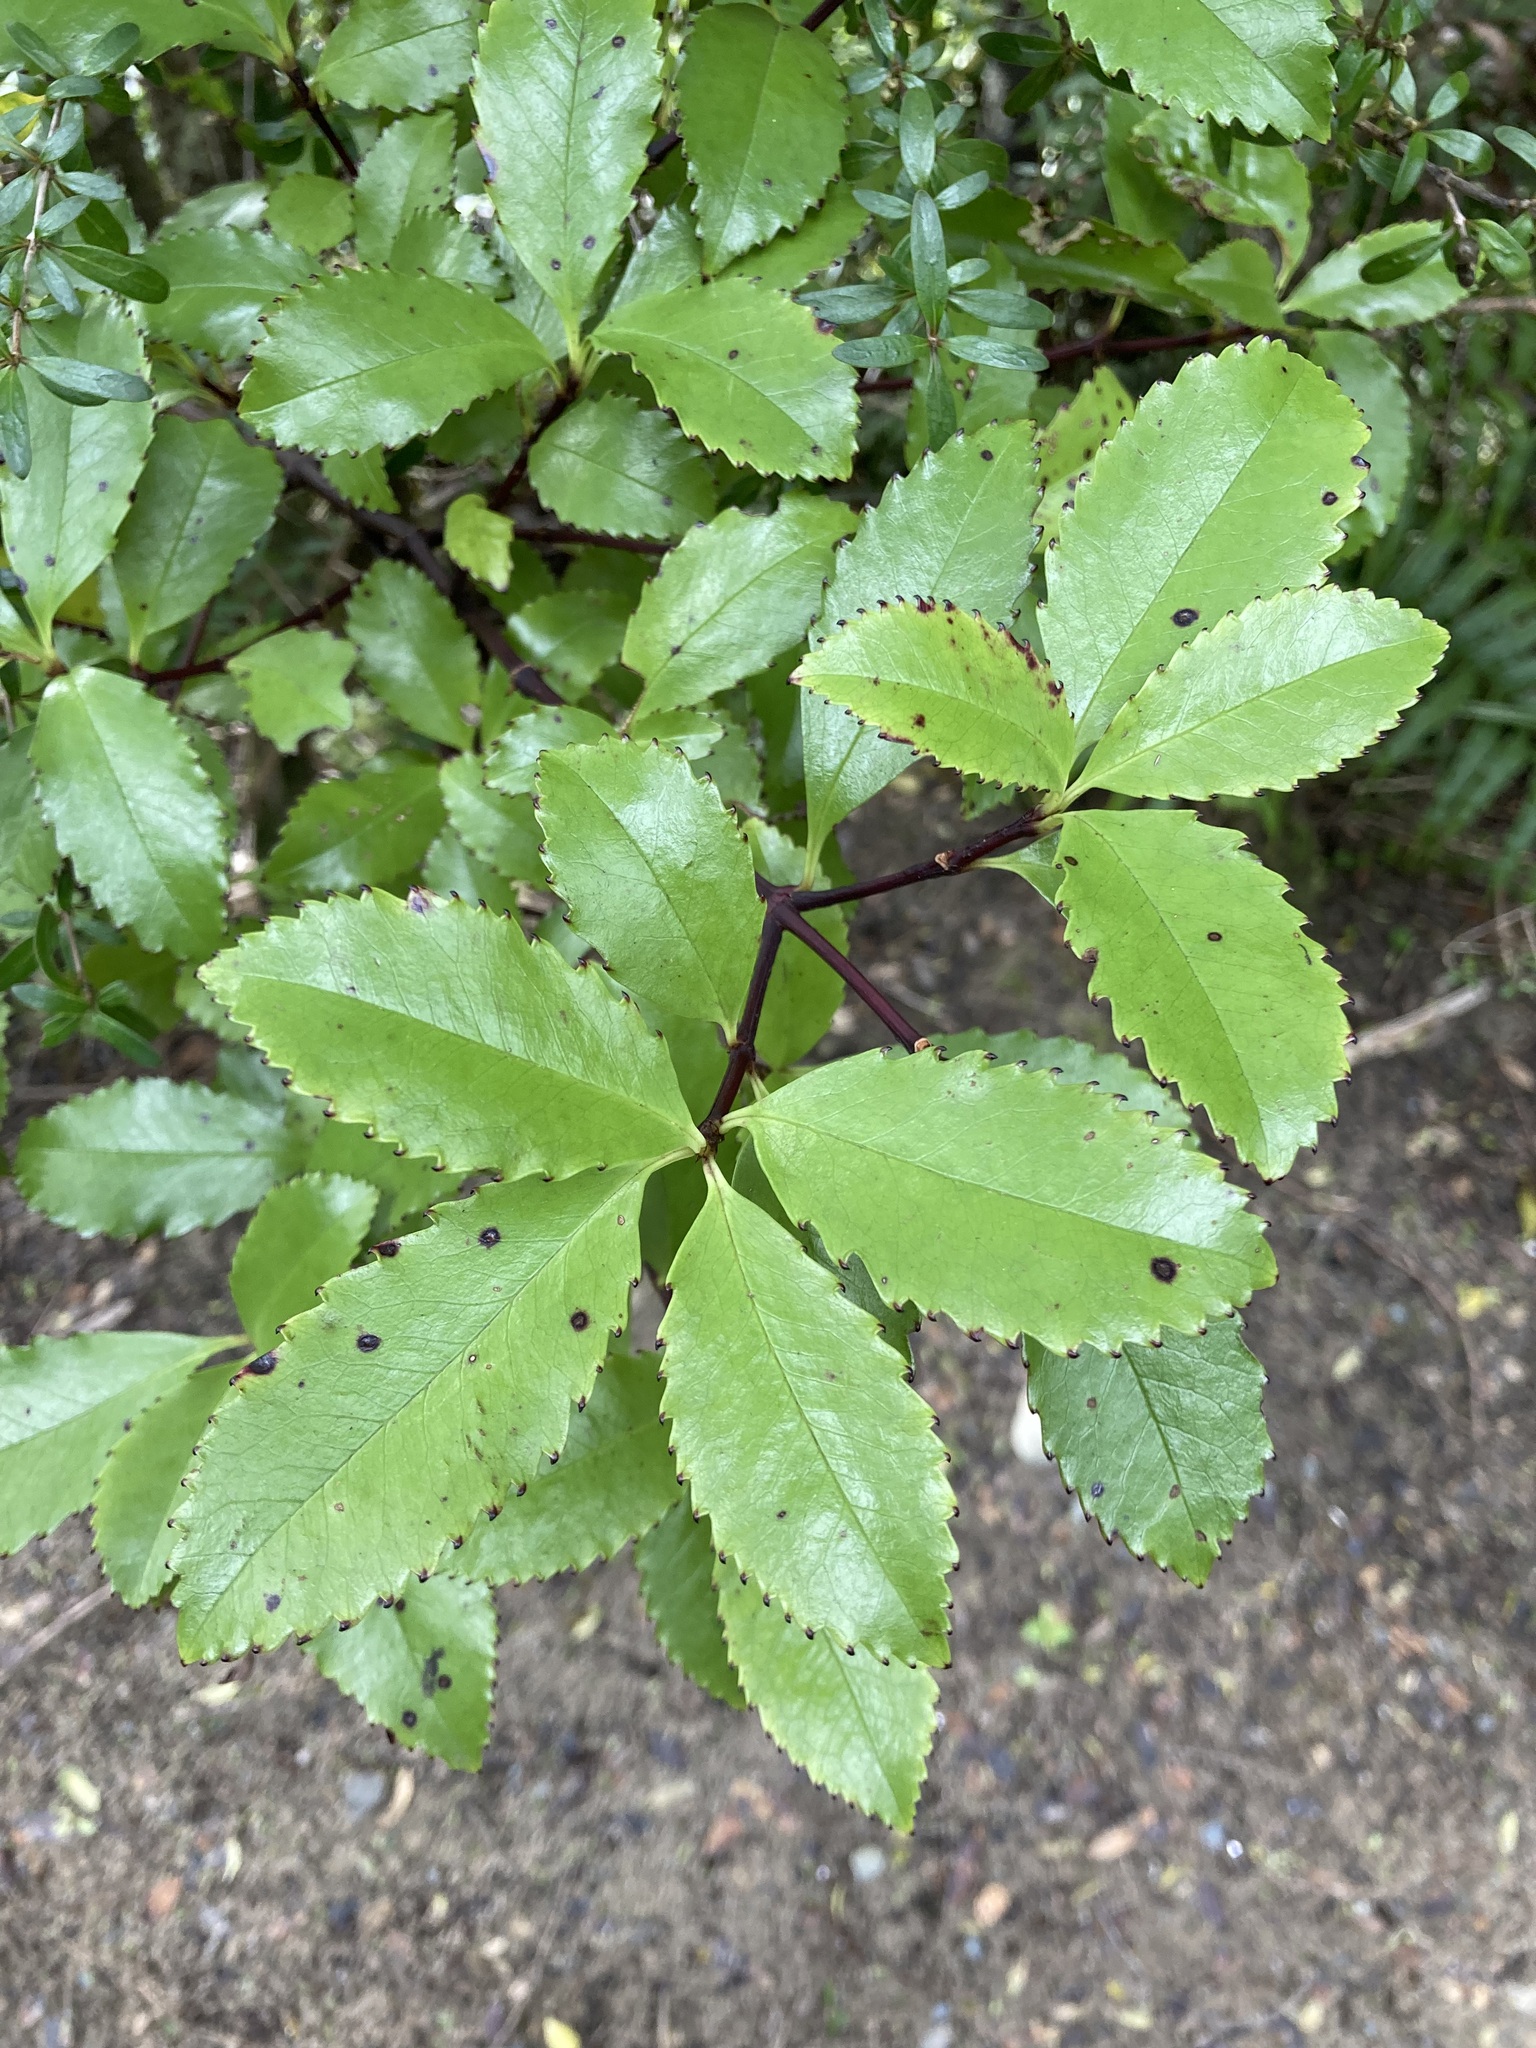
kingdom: Plantae
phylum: Tracheophyta
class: Magnoliopsida
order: Chloranthales
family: Chloranthaceae
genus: Ascarina
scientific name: Ascarina lucida
